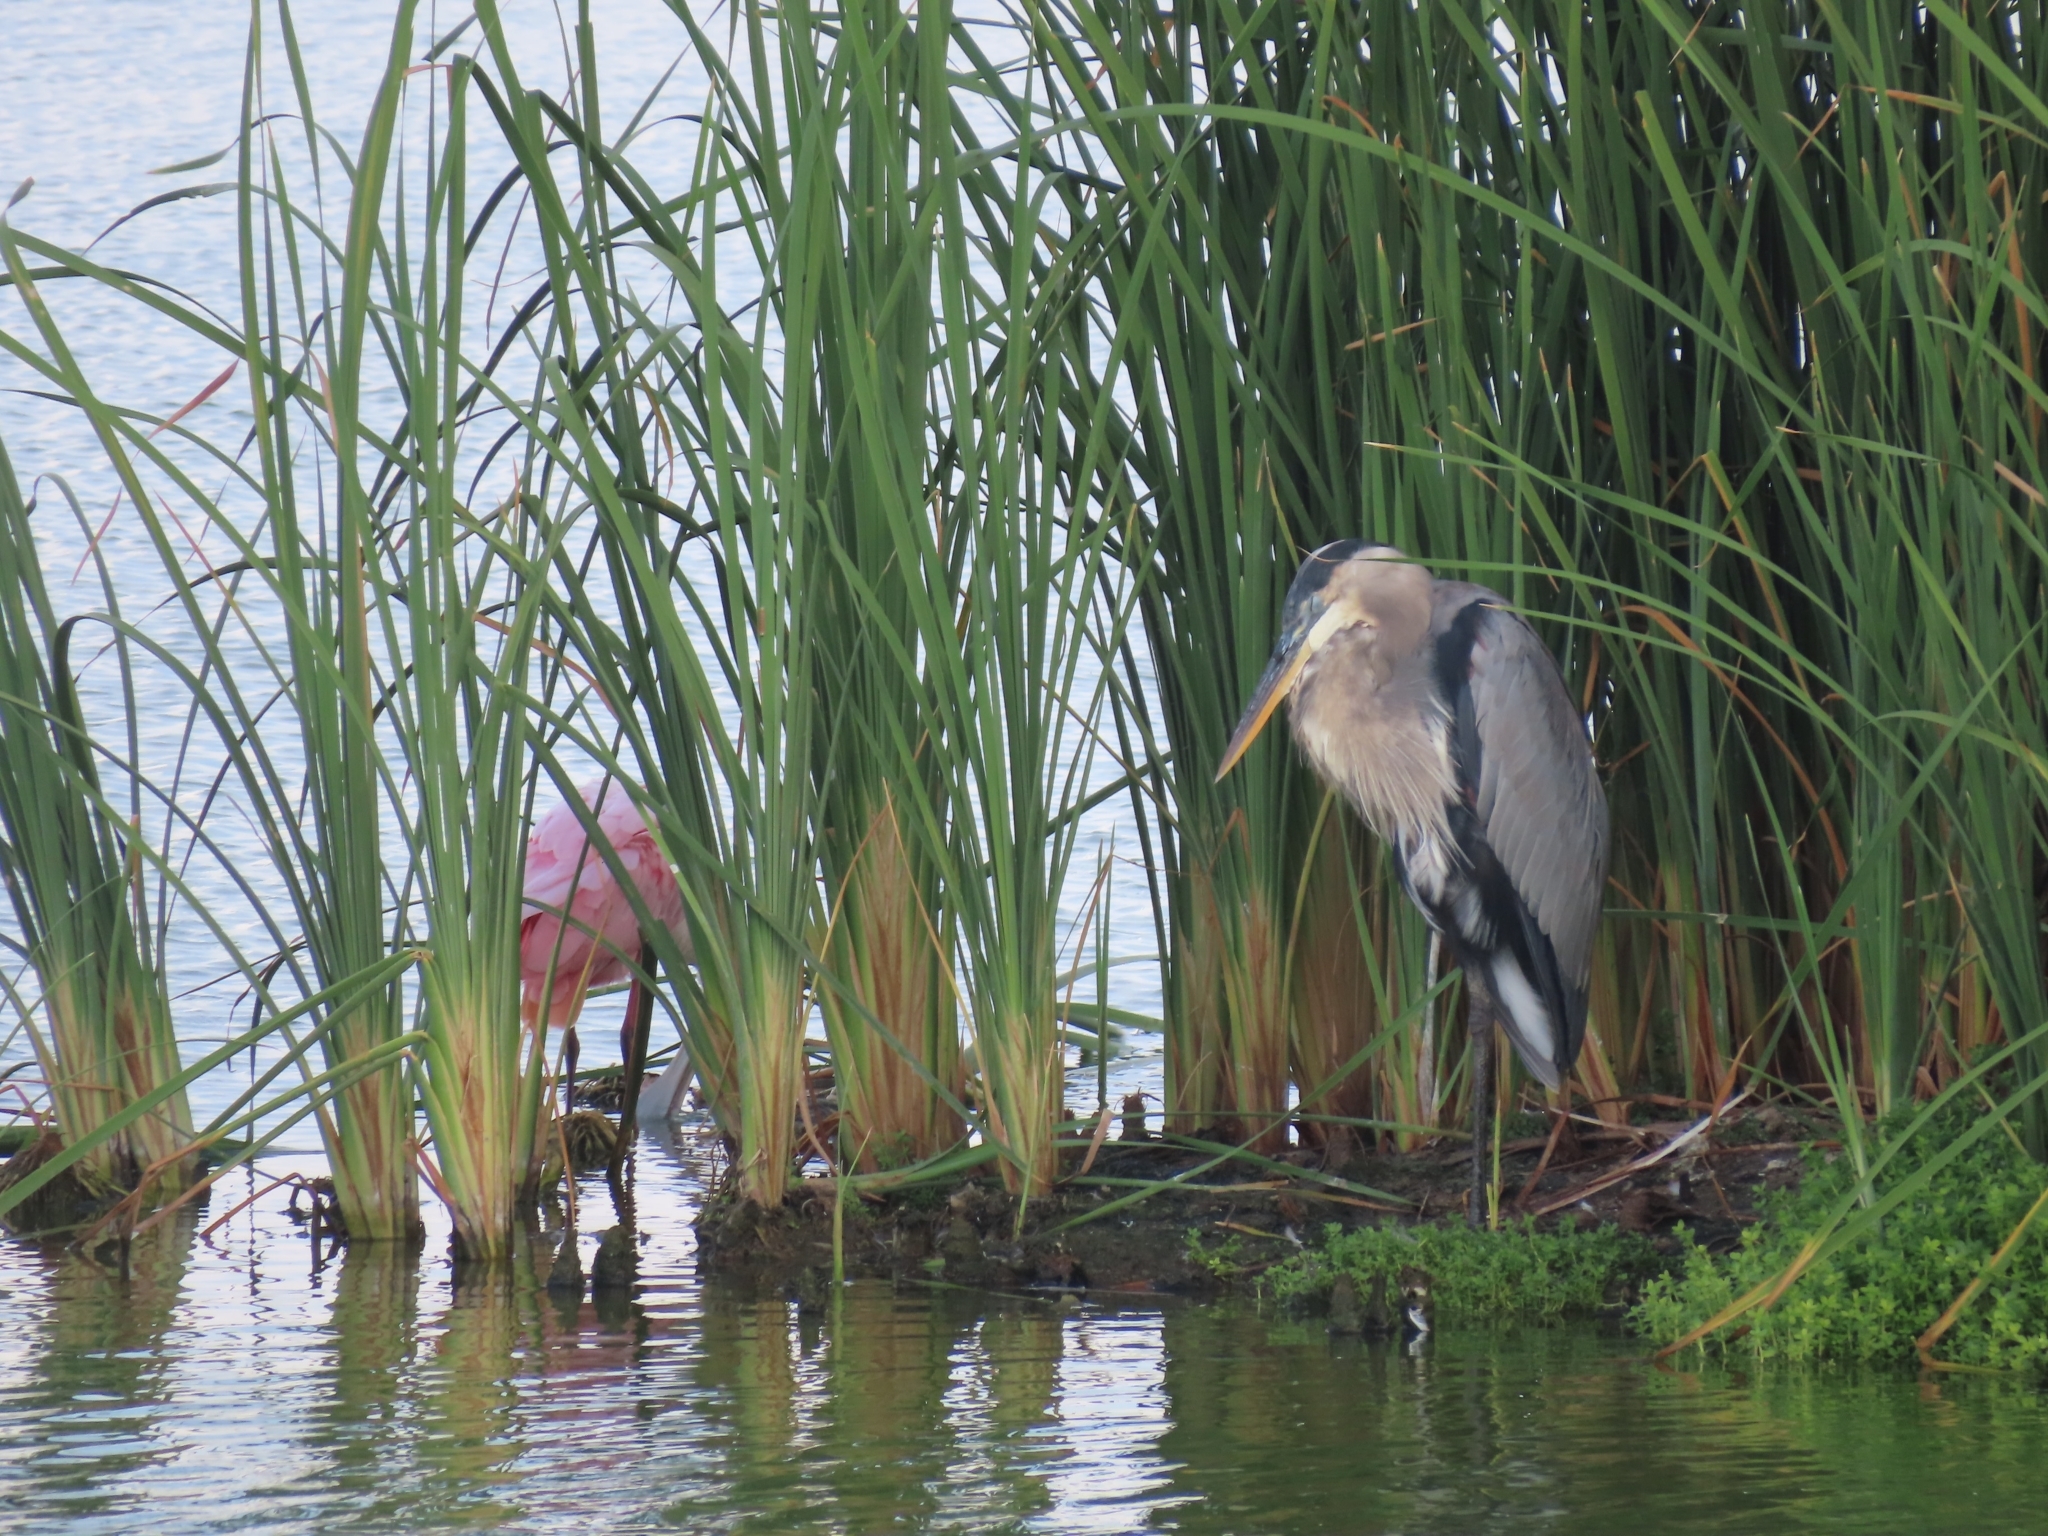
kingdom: Animalia
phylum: Chordata
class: Aves
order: Pelecaniformes
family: Ardeidae
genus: Ardea
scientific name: Ardea herodias
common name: Great blue heron
